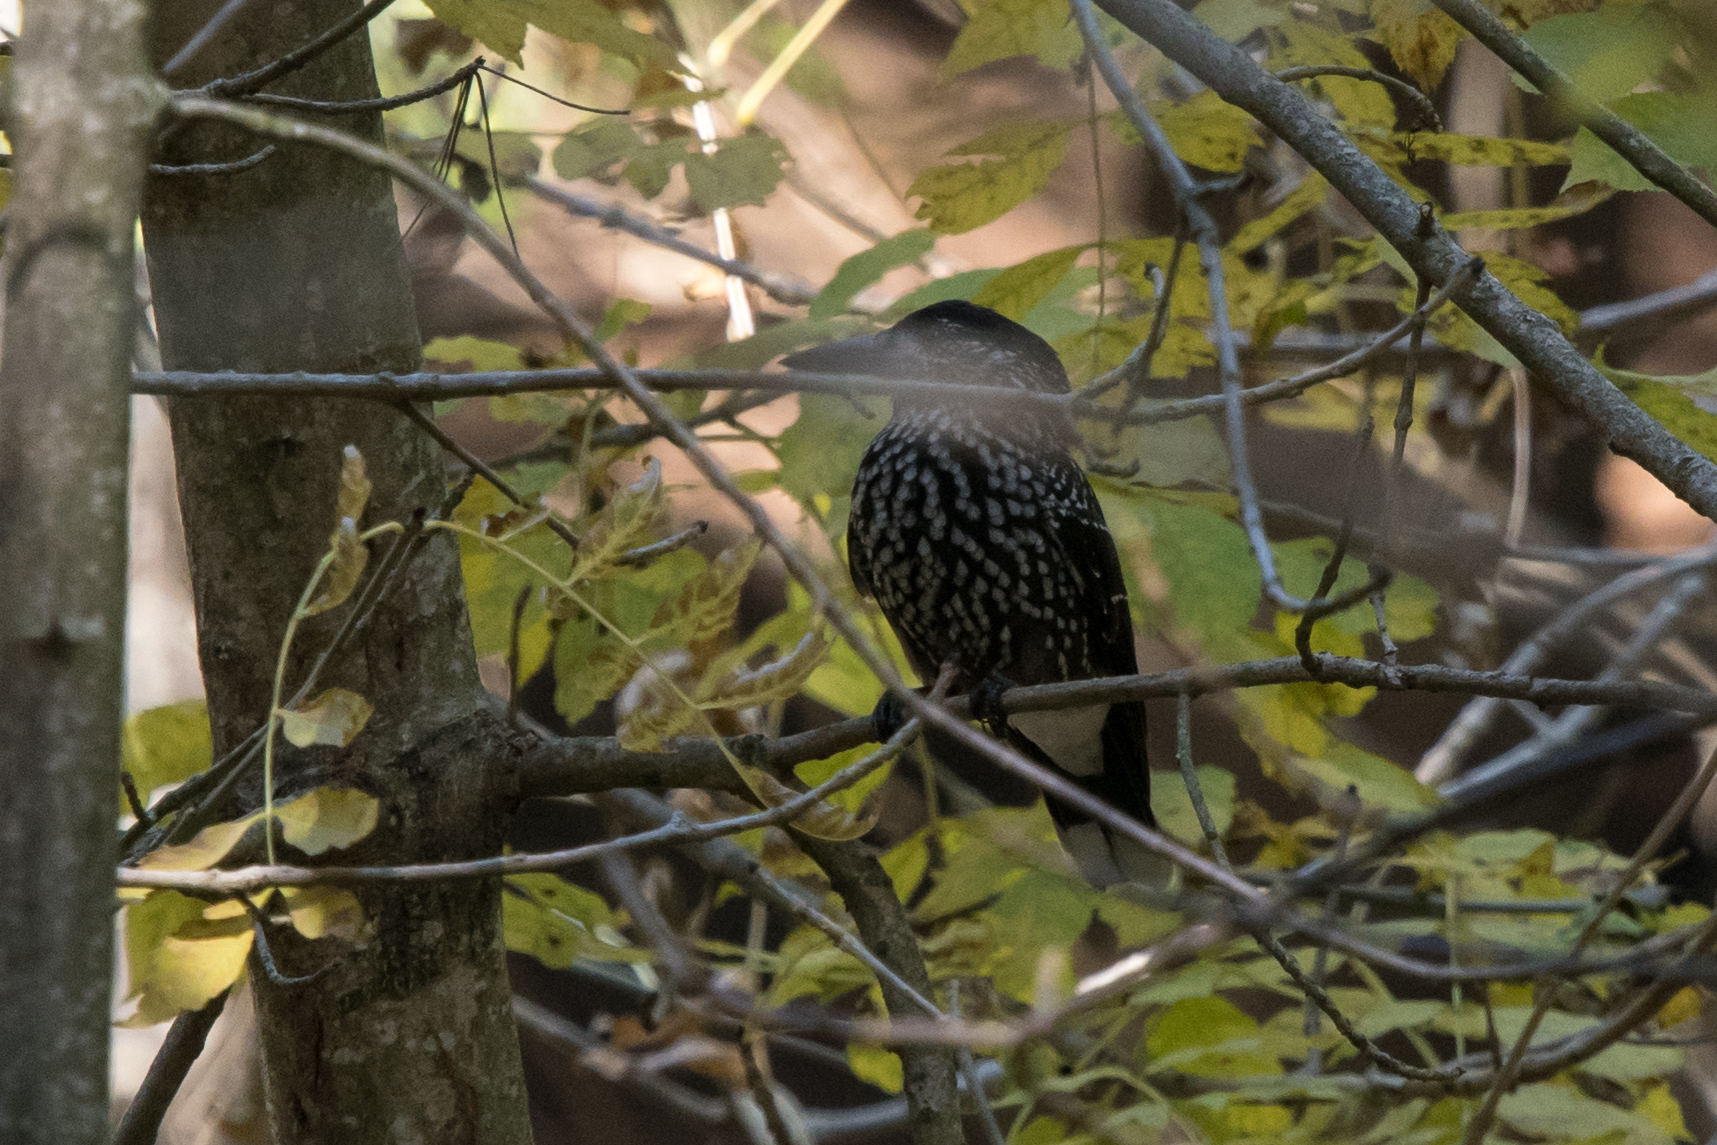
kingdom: Animalia
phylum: Chordata
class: Aves
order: Passeriformes
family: Corvidae
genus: Nucifraga
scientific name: Nucifraga caryocatactes
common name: Spotted nutcracker
